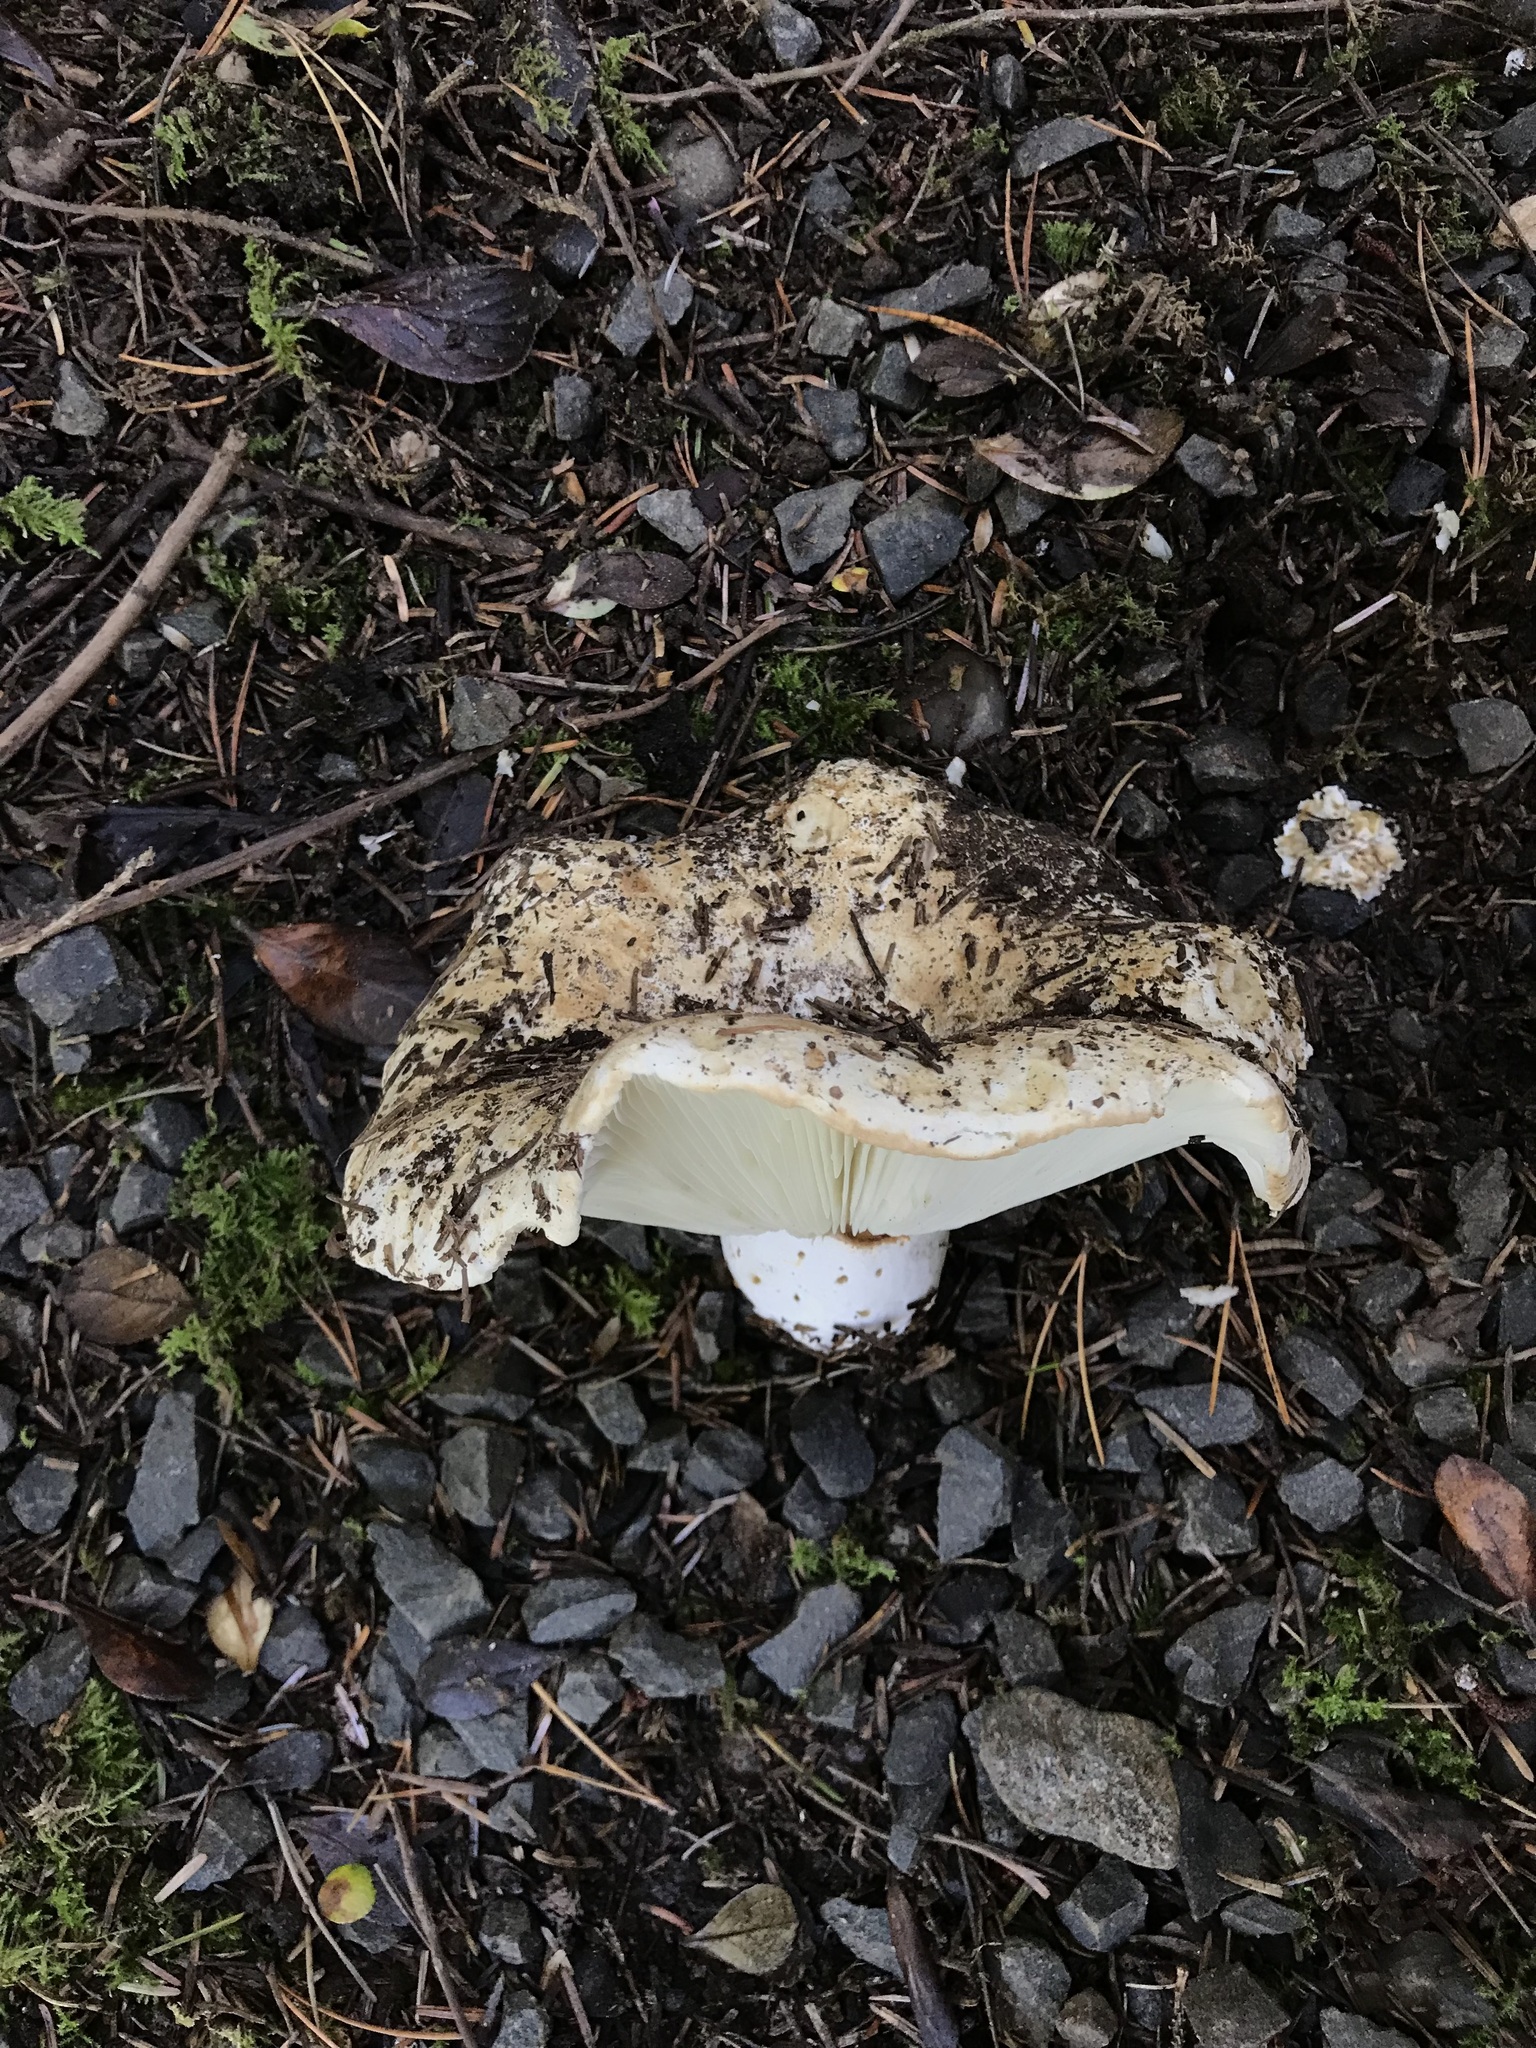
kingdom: Fungi
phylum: Basidiomycota
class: Agaricomycetes
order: Russulales
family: Russulaceae
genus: Russula
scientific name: Russula brevipes
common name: Short-stemmed russula
